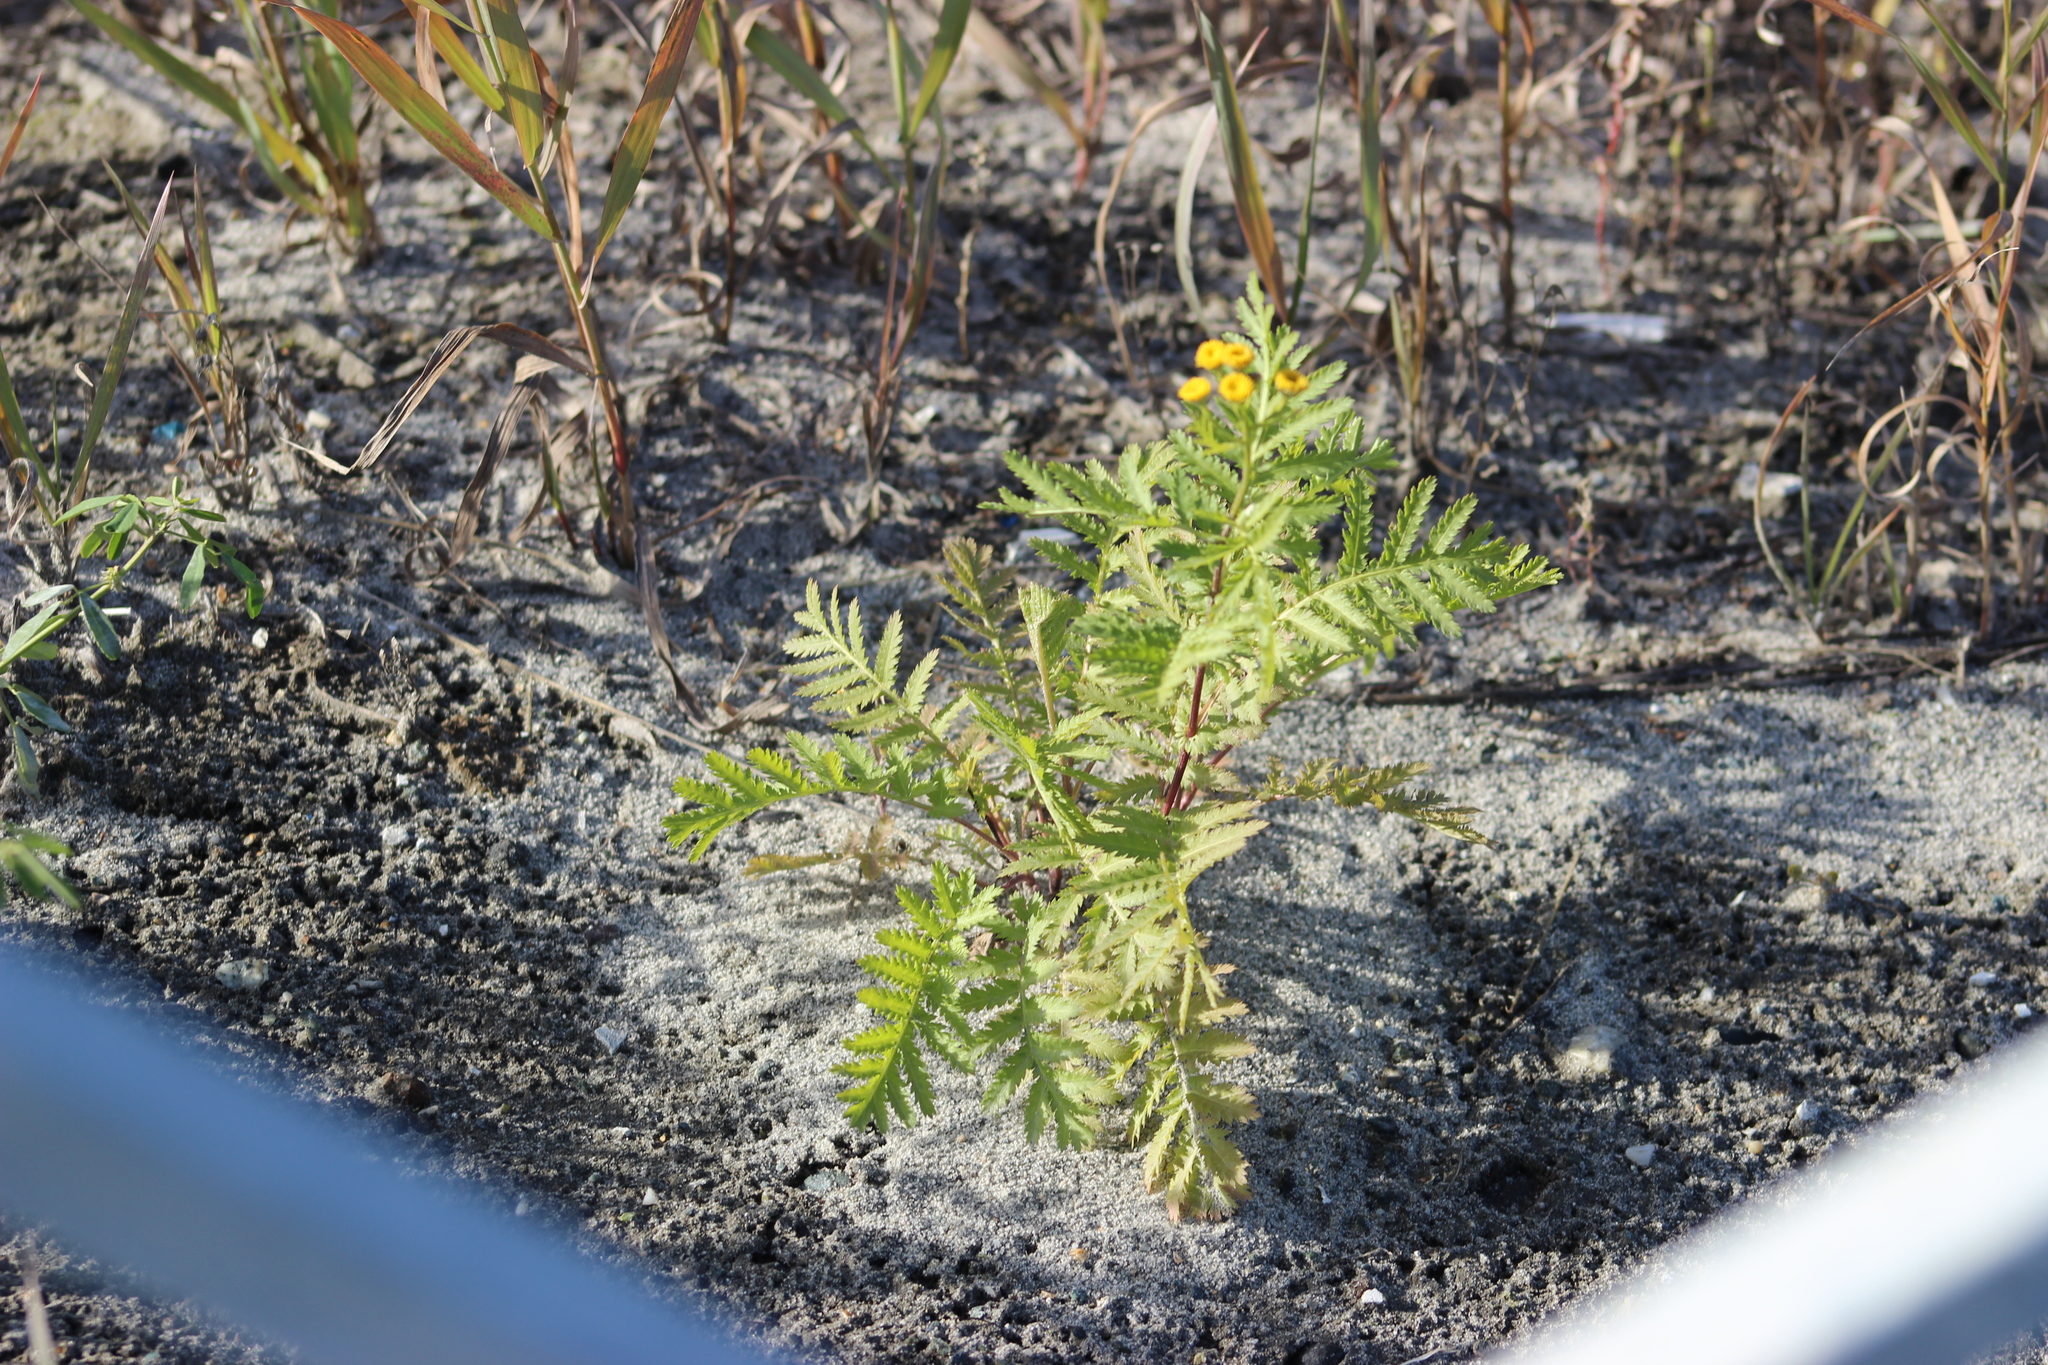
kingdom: Plantae
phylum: Tracheophyta
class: Magnoliopsida
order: Asterales
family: Asteraceae
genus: Tanacetum
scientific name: Tanacetum vulgare
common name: Common tansy
